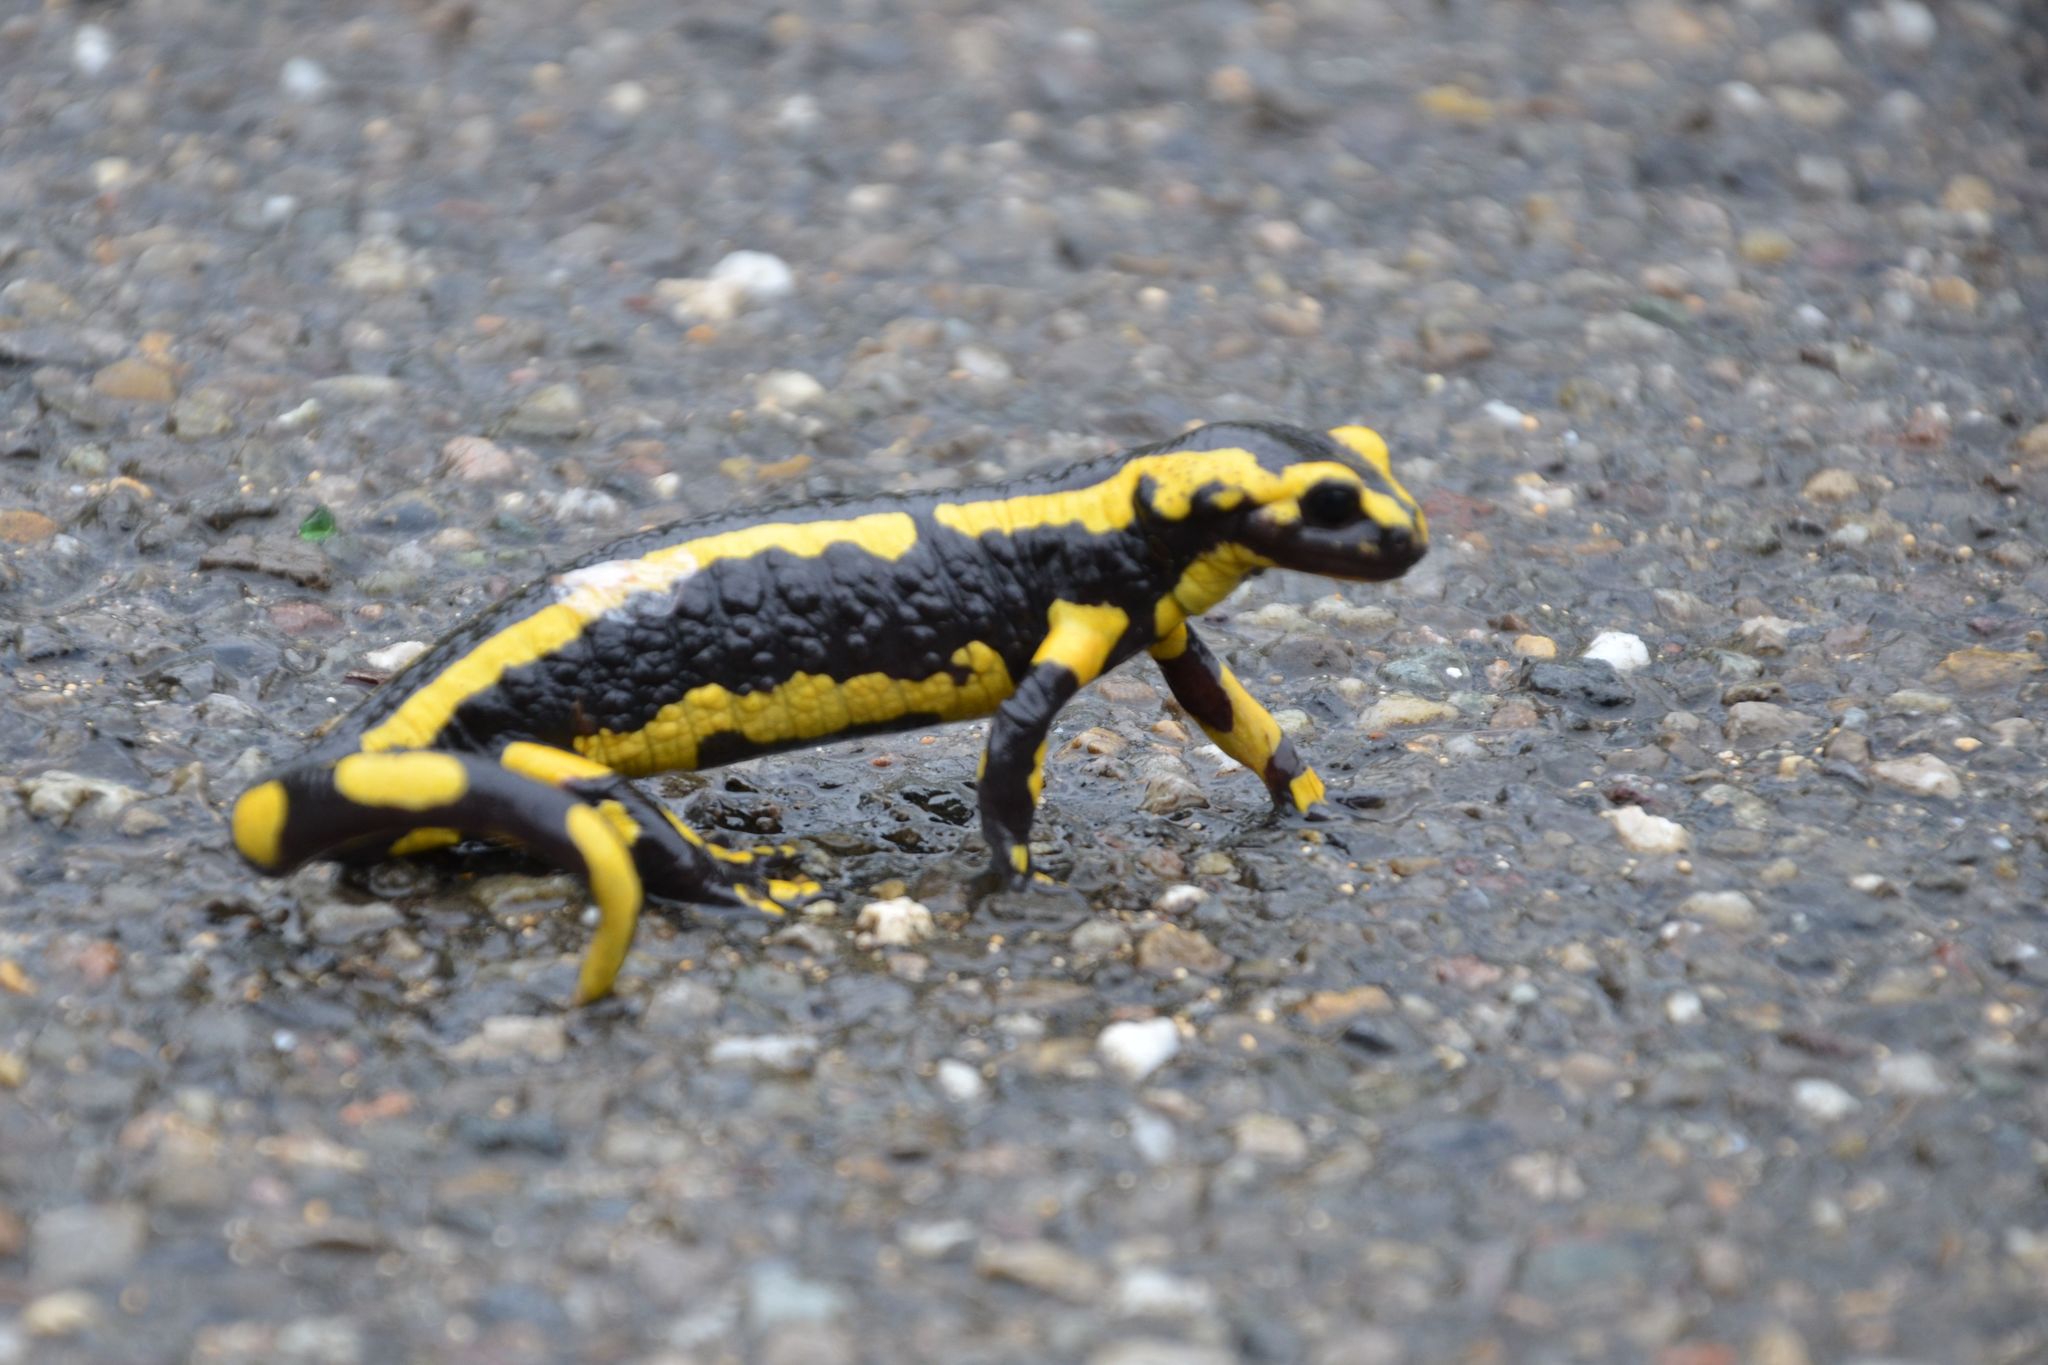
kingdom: Animalia
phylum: Chordata
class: Amphibia
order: Caudata
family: Salamandridae
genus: Salamandra
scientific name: Salamandra salamandra
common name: Fire salamander
